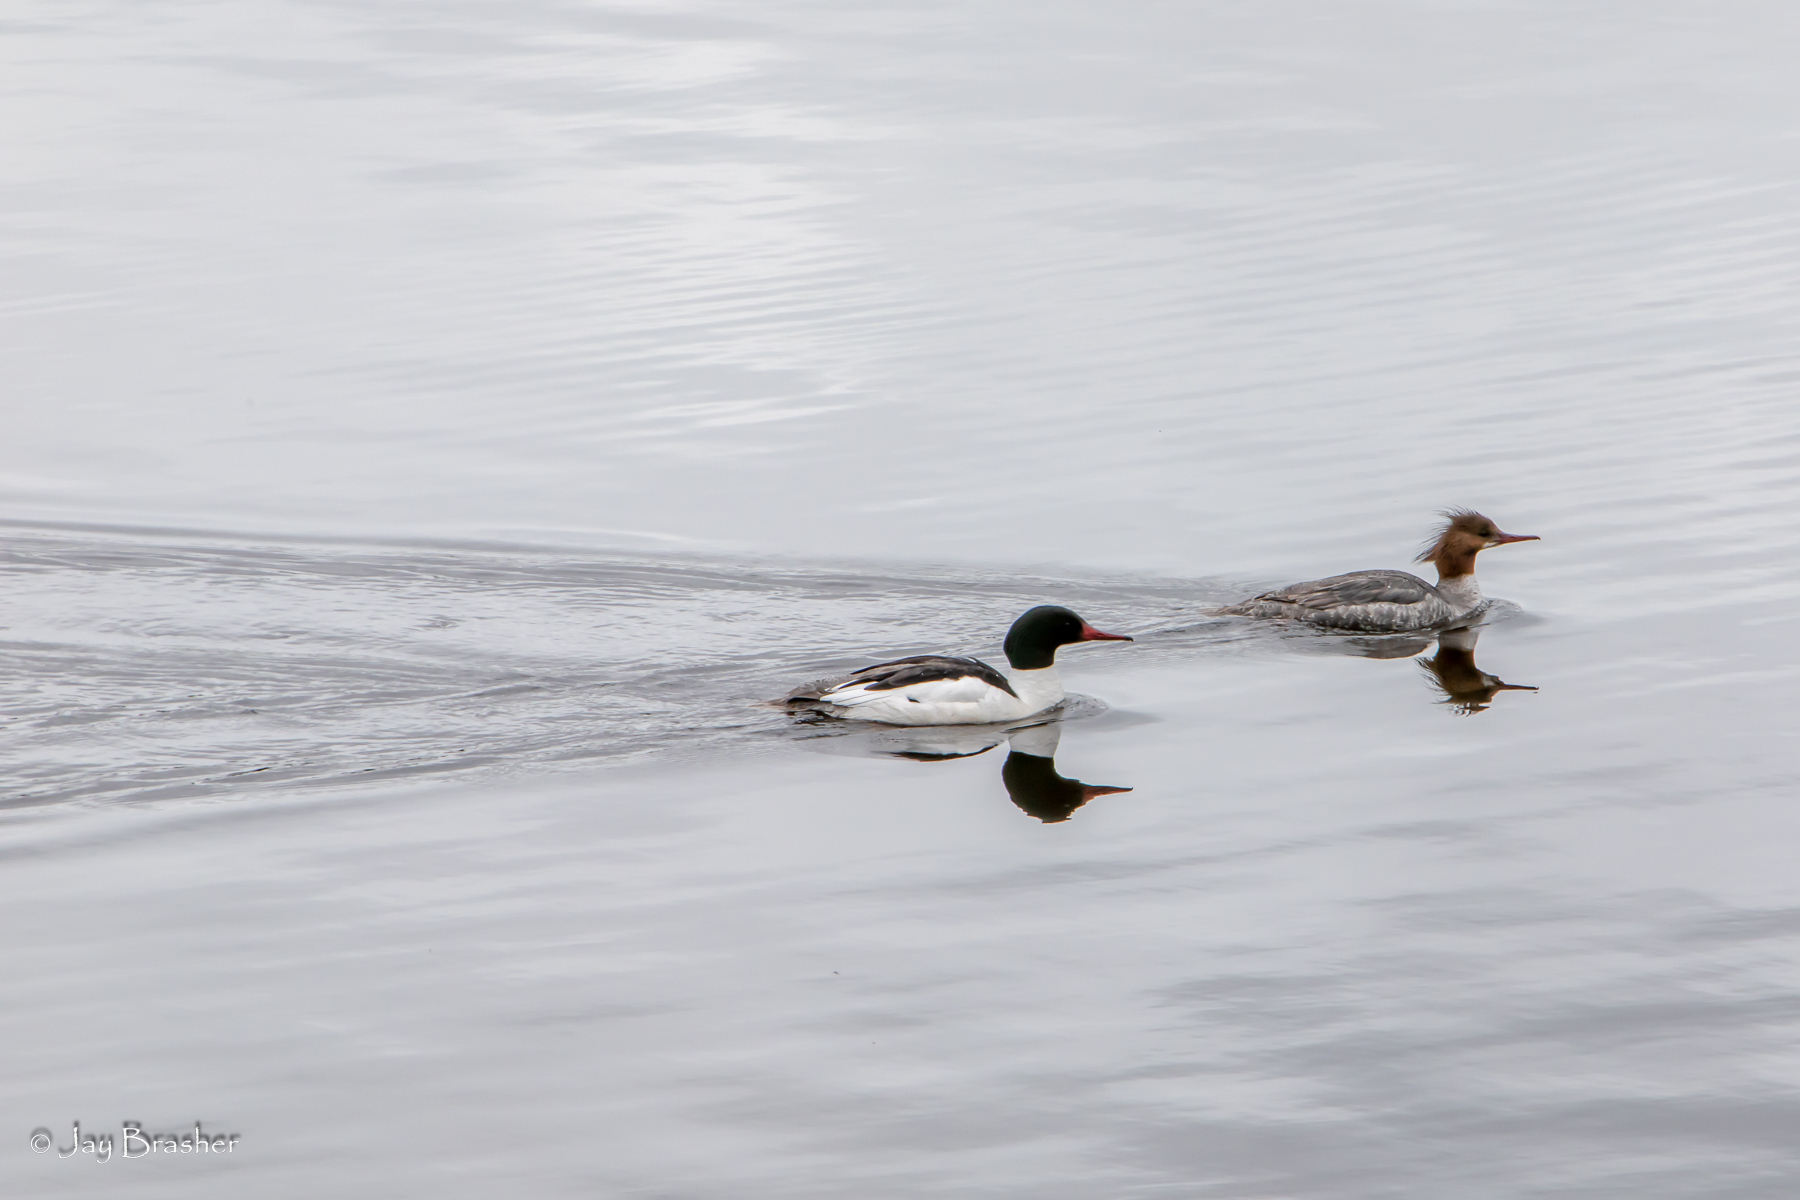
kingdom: Animalia
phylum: Chordata
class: Aves
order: Anseriformes
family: Anatidae
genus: Mergus
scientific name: Mergus merganser
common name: Common merganser
